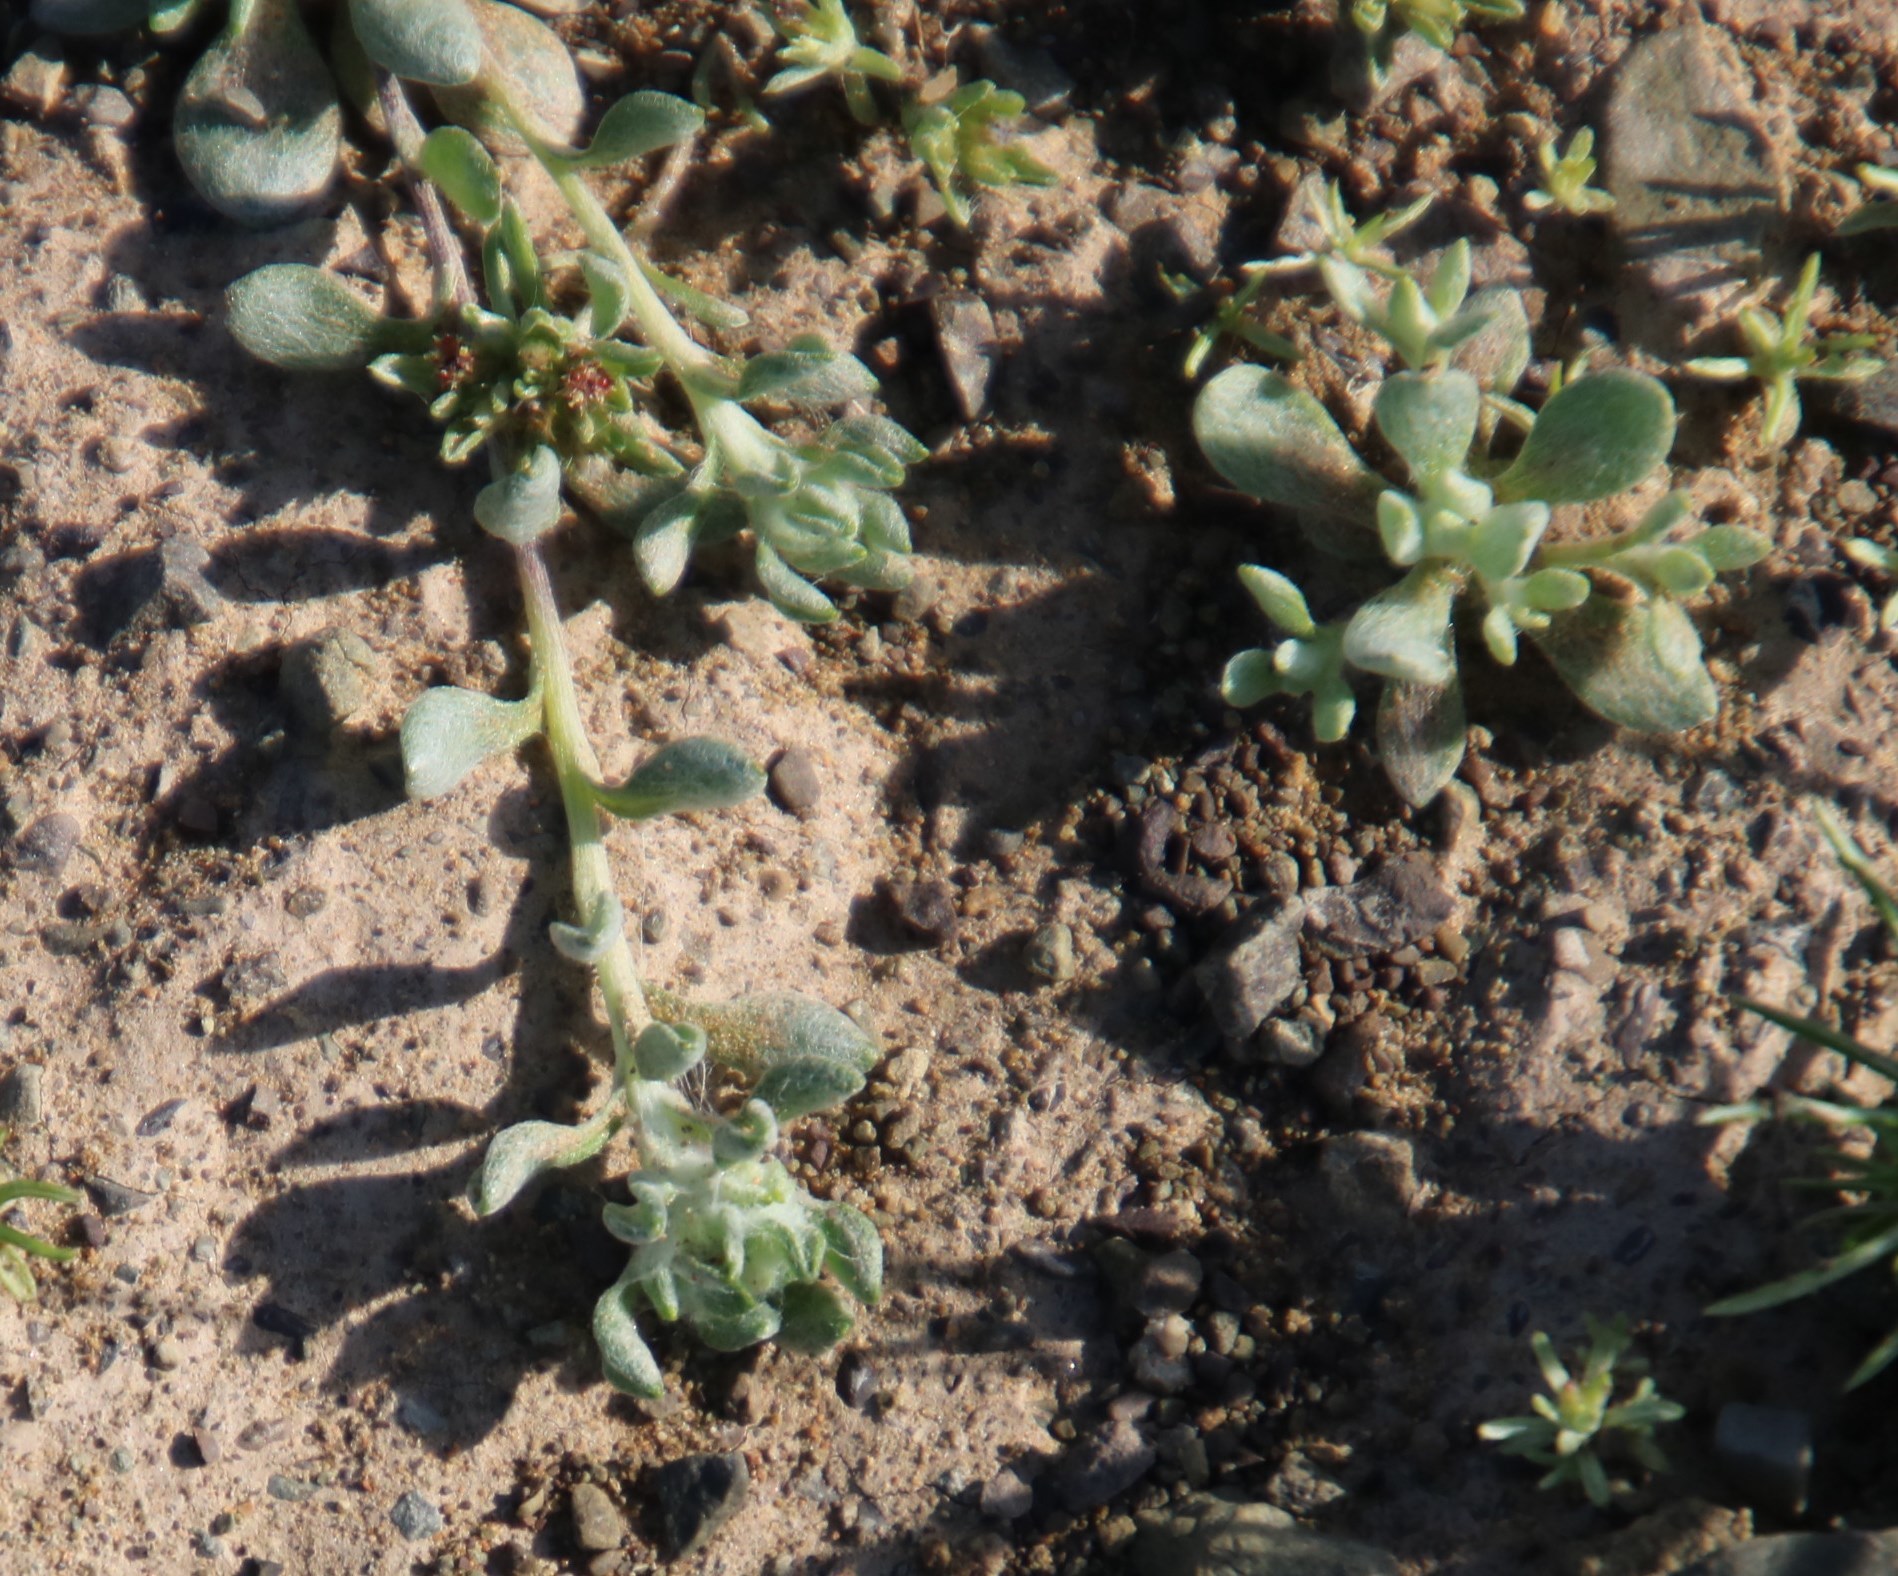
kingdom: Plantae
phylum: Tracheophyta
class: Magnoliopsida
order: Asterales
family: Asteraceae
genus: Helichrysum
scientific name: Helichrysum pumilio
